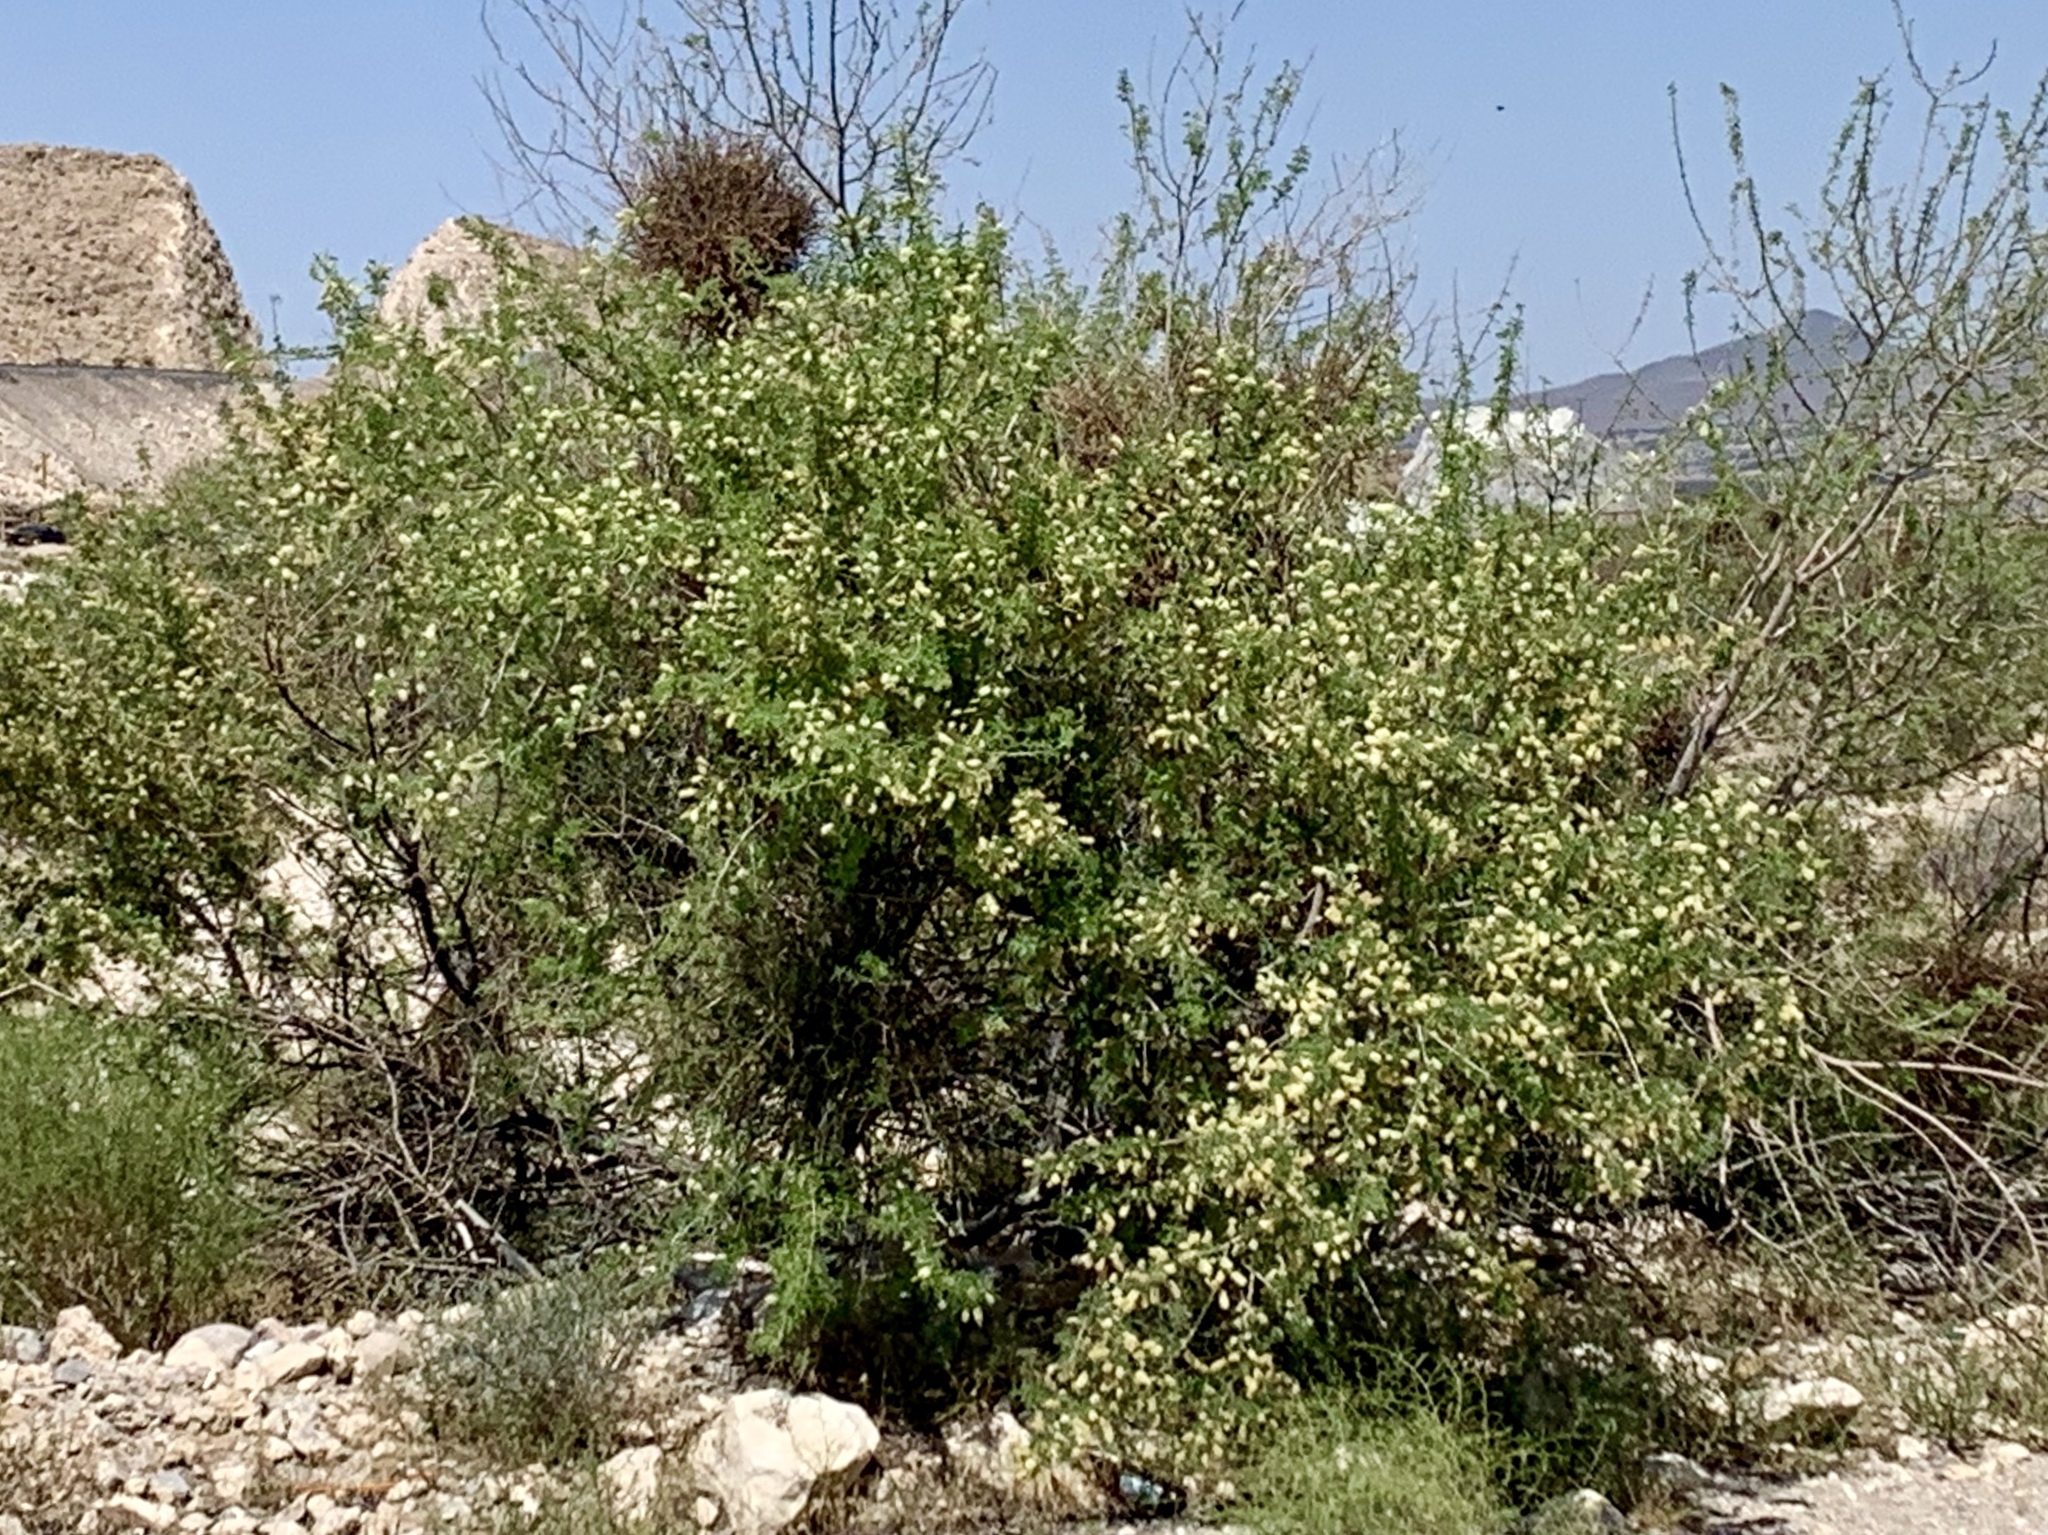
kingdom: Plantae
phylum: Tracheophyta
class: Magnoliopsida
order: Fabales
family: Fabaceae
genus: Senegalia
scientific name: Senegalia greggii
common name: Texas-mimosa
